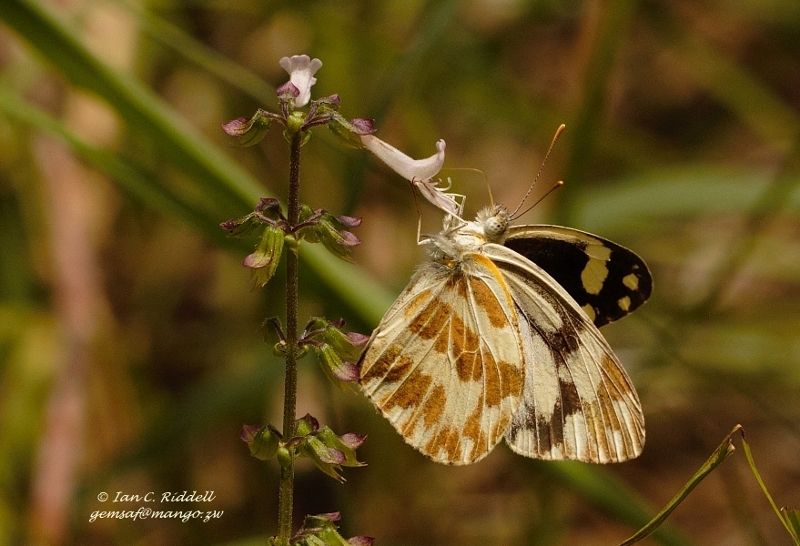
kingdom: Animalia
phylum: Arthropoda
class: Insecta
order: Lepidoptera
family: Pieridae
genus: Pinacopteryx
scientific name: Pinacopteryx eriphia
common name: Zebra white
